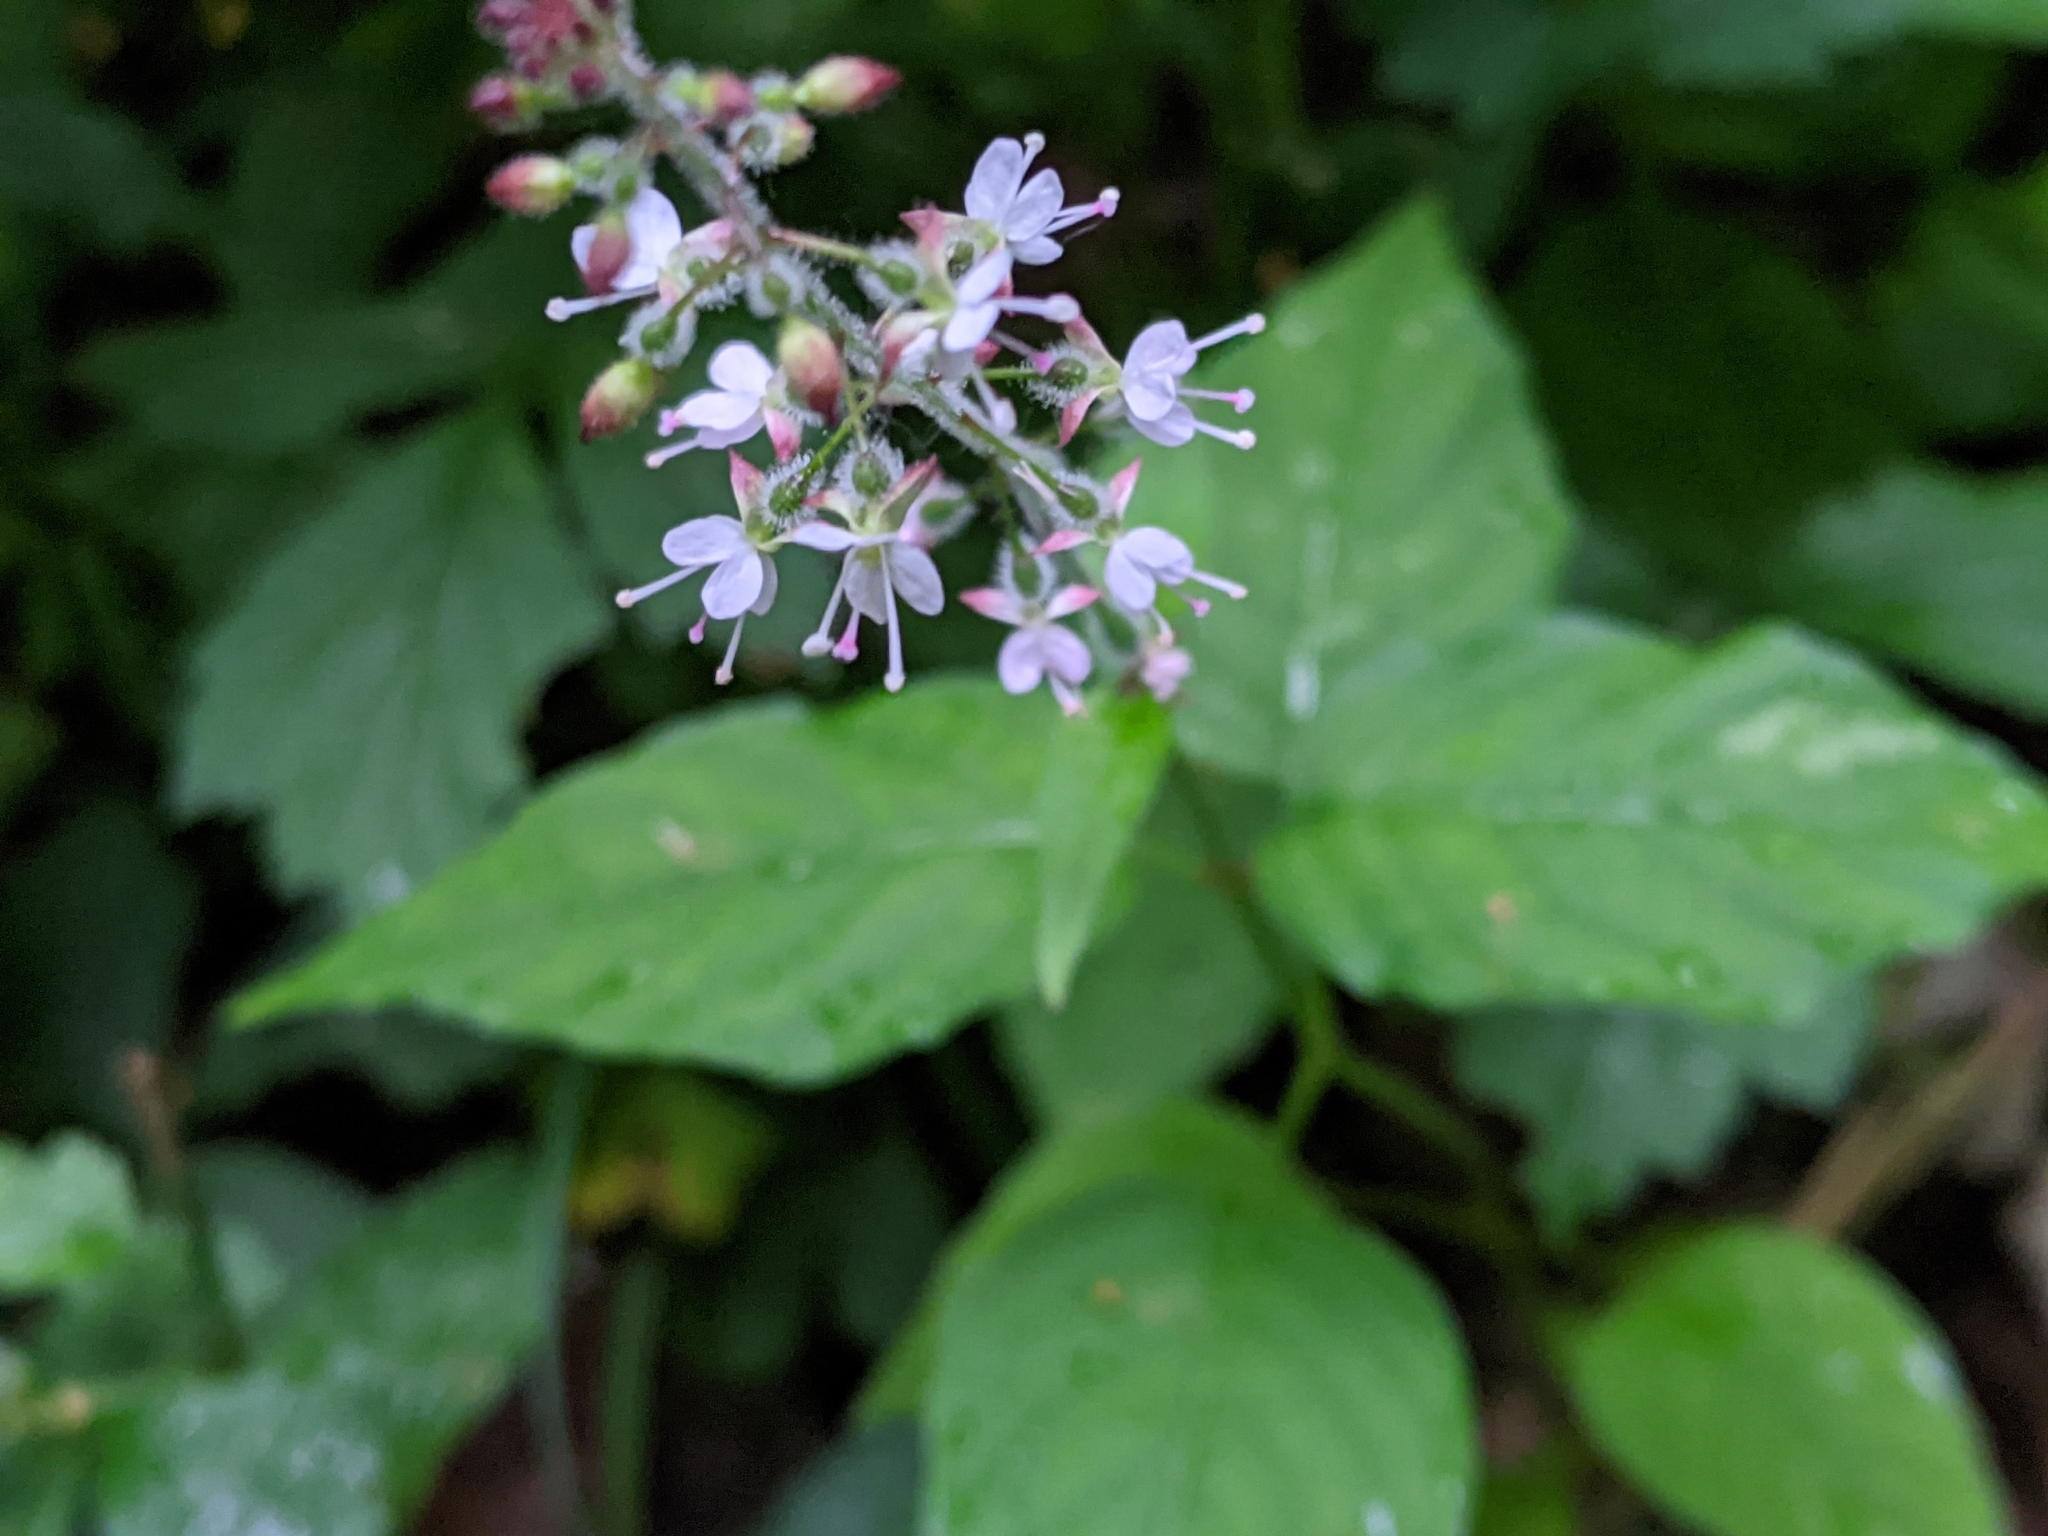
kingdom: Plantae
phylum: Tracheophyta
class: Magnoliopsida
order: Myrtales
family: Onagraceae
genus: Circaea
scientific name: Circaea lutetiana
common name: Enchanter's-nightshade
